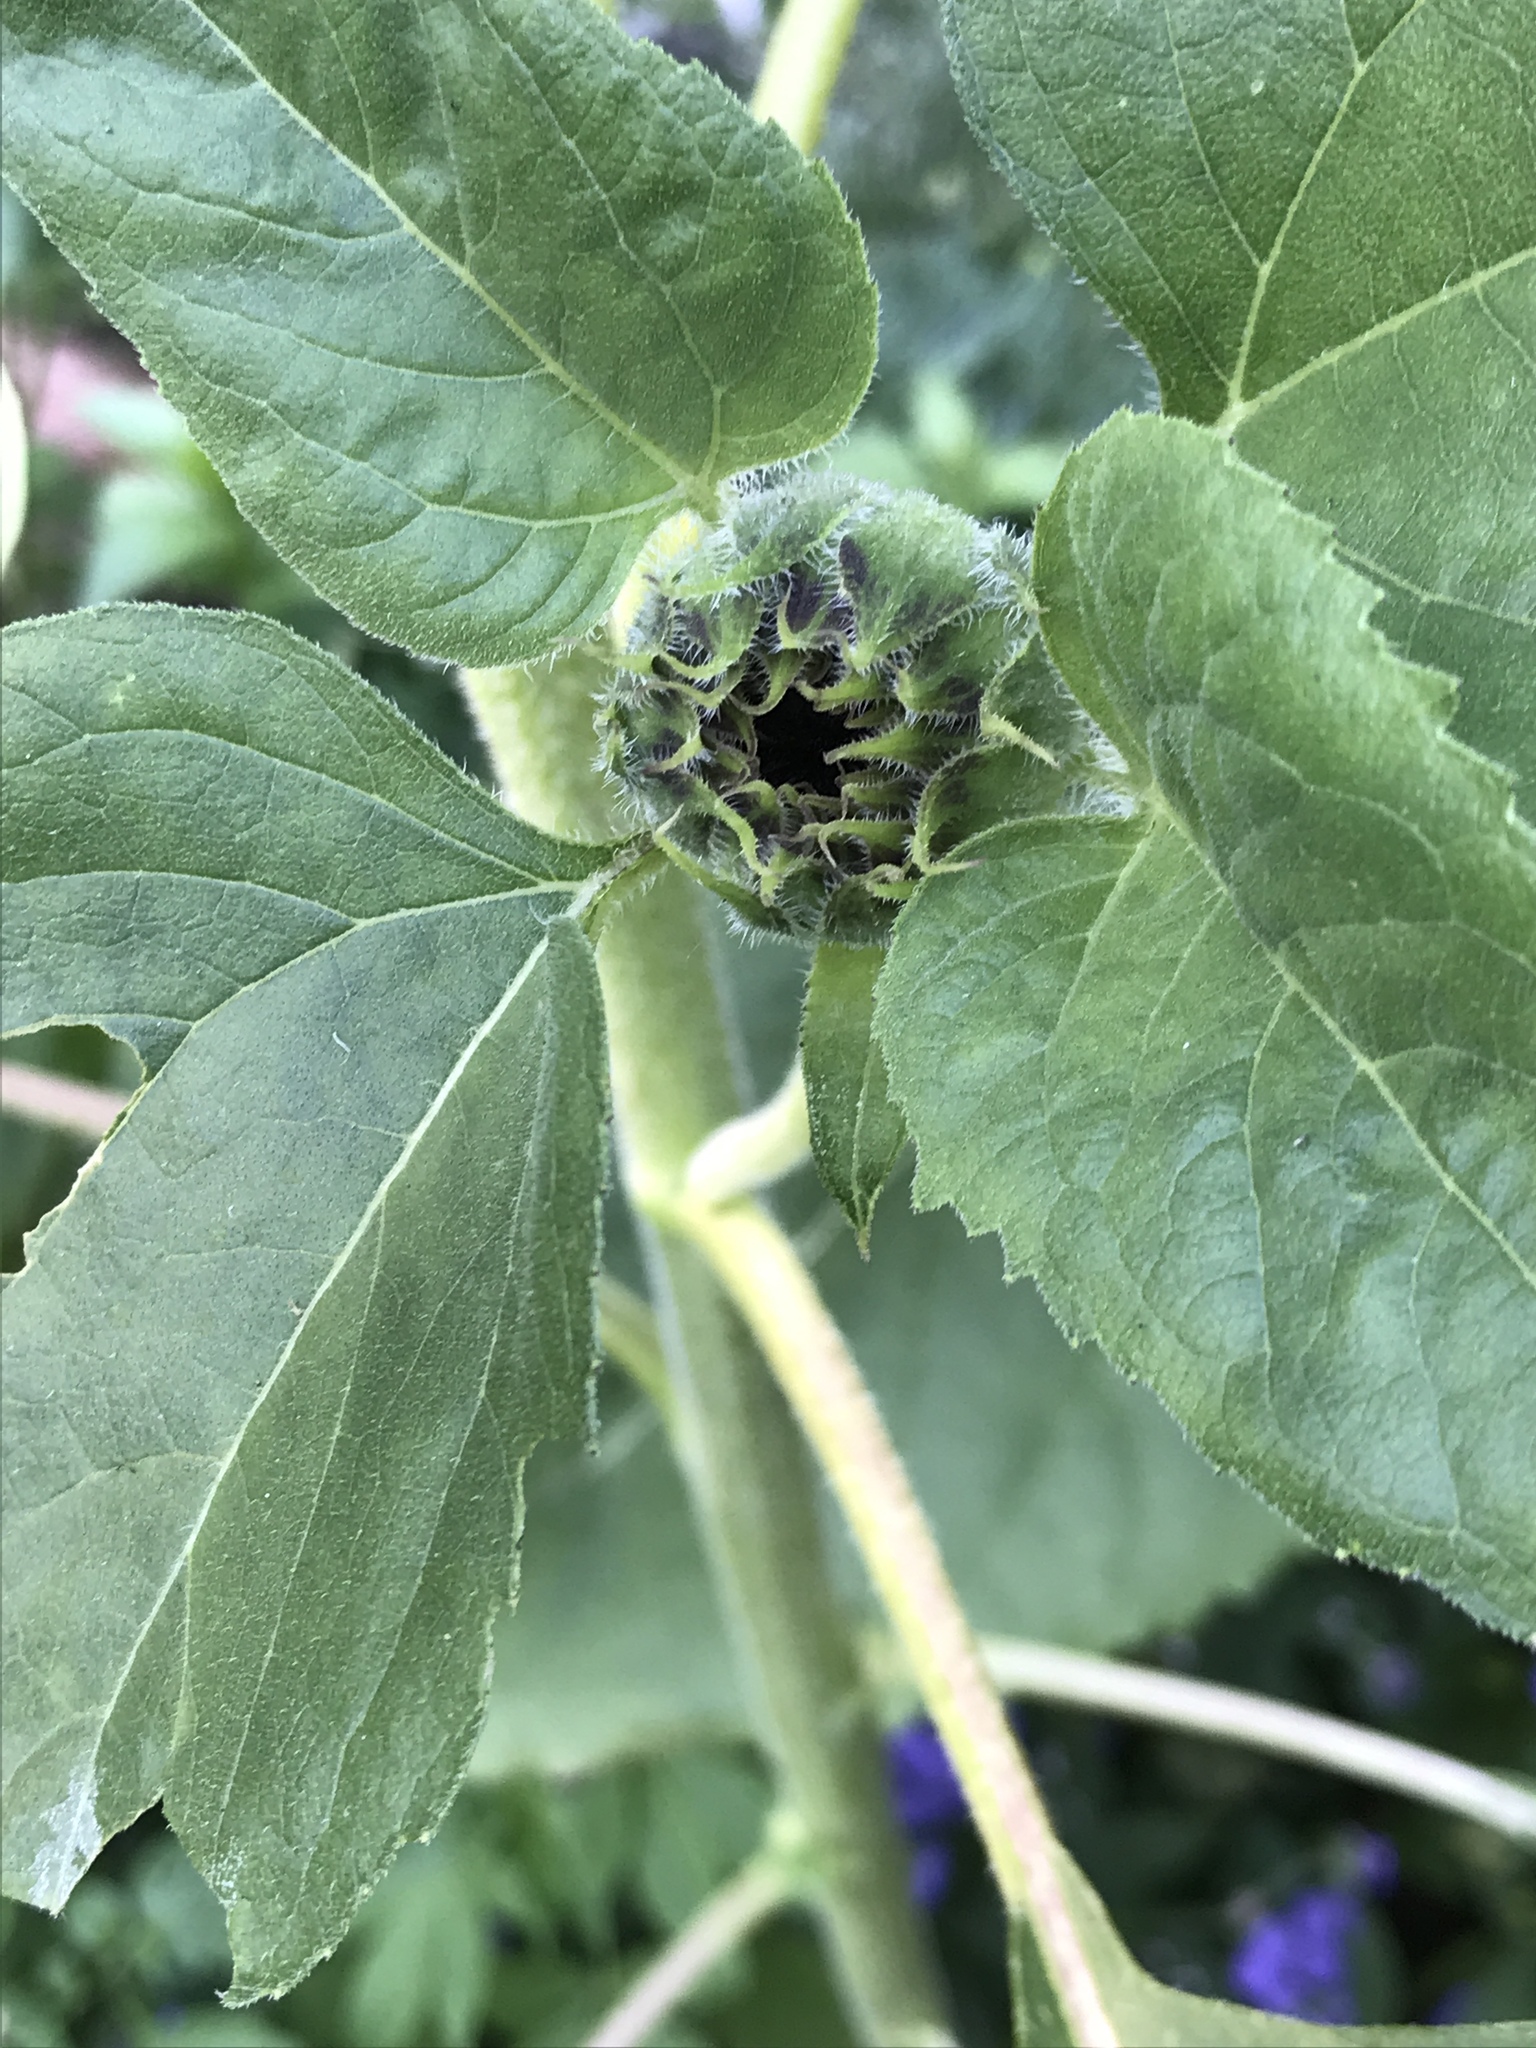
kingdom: Plantae
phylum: Tracheophyta
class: Magnoliopsida
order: Asterales
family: Asteraceae
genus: Helianthus
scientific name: Helianthus annuus
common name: Sunflower
